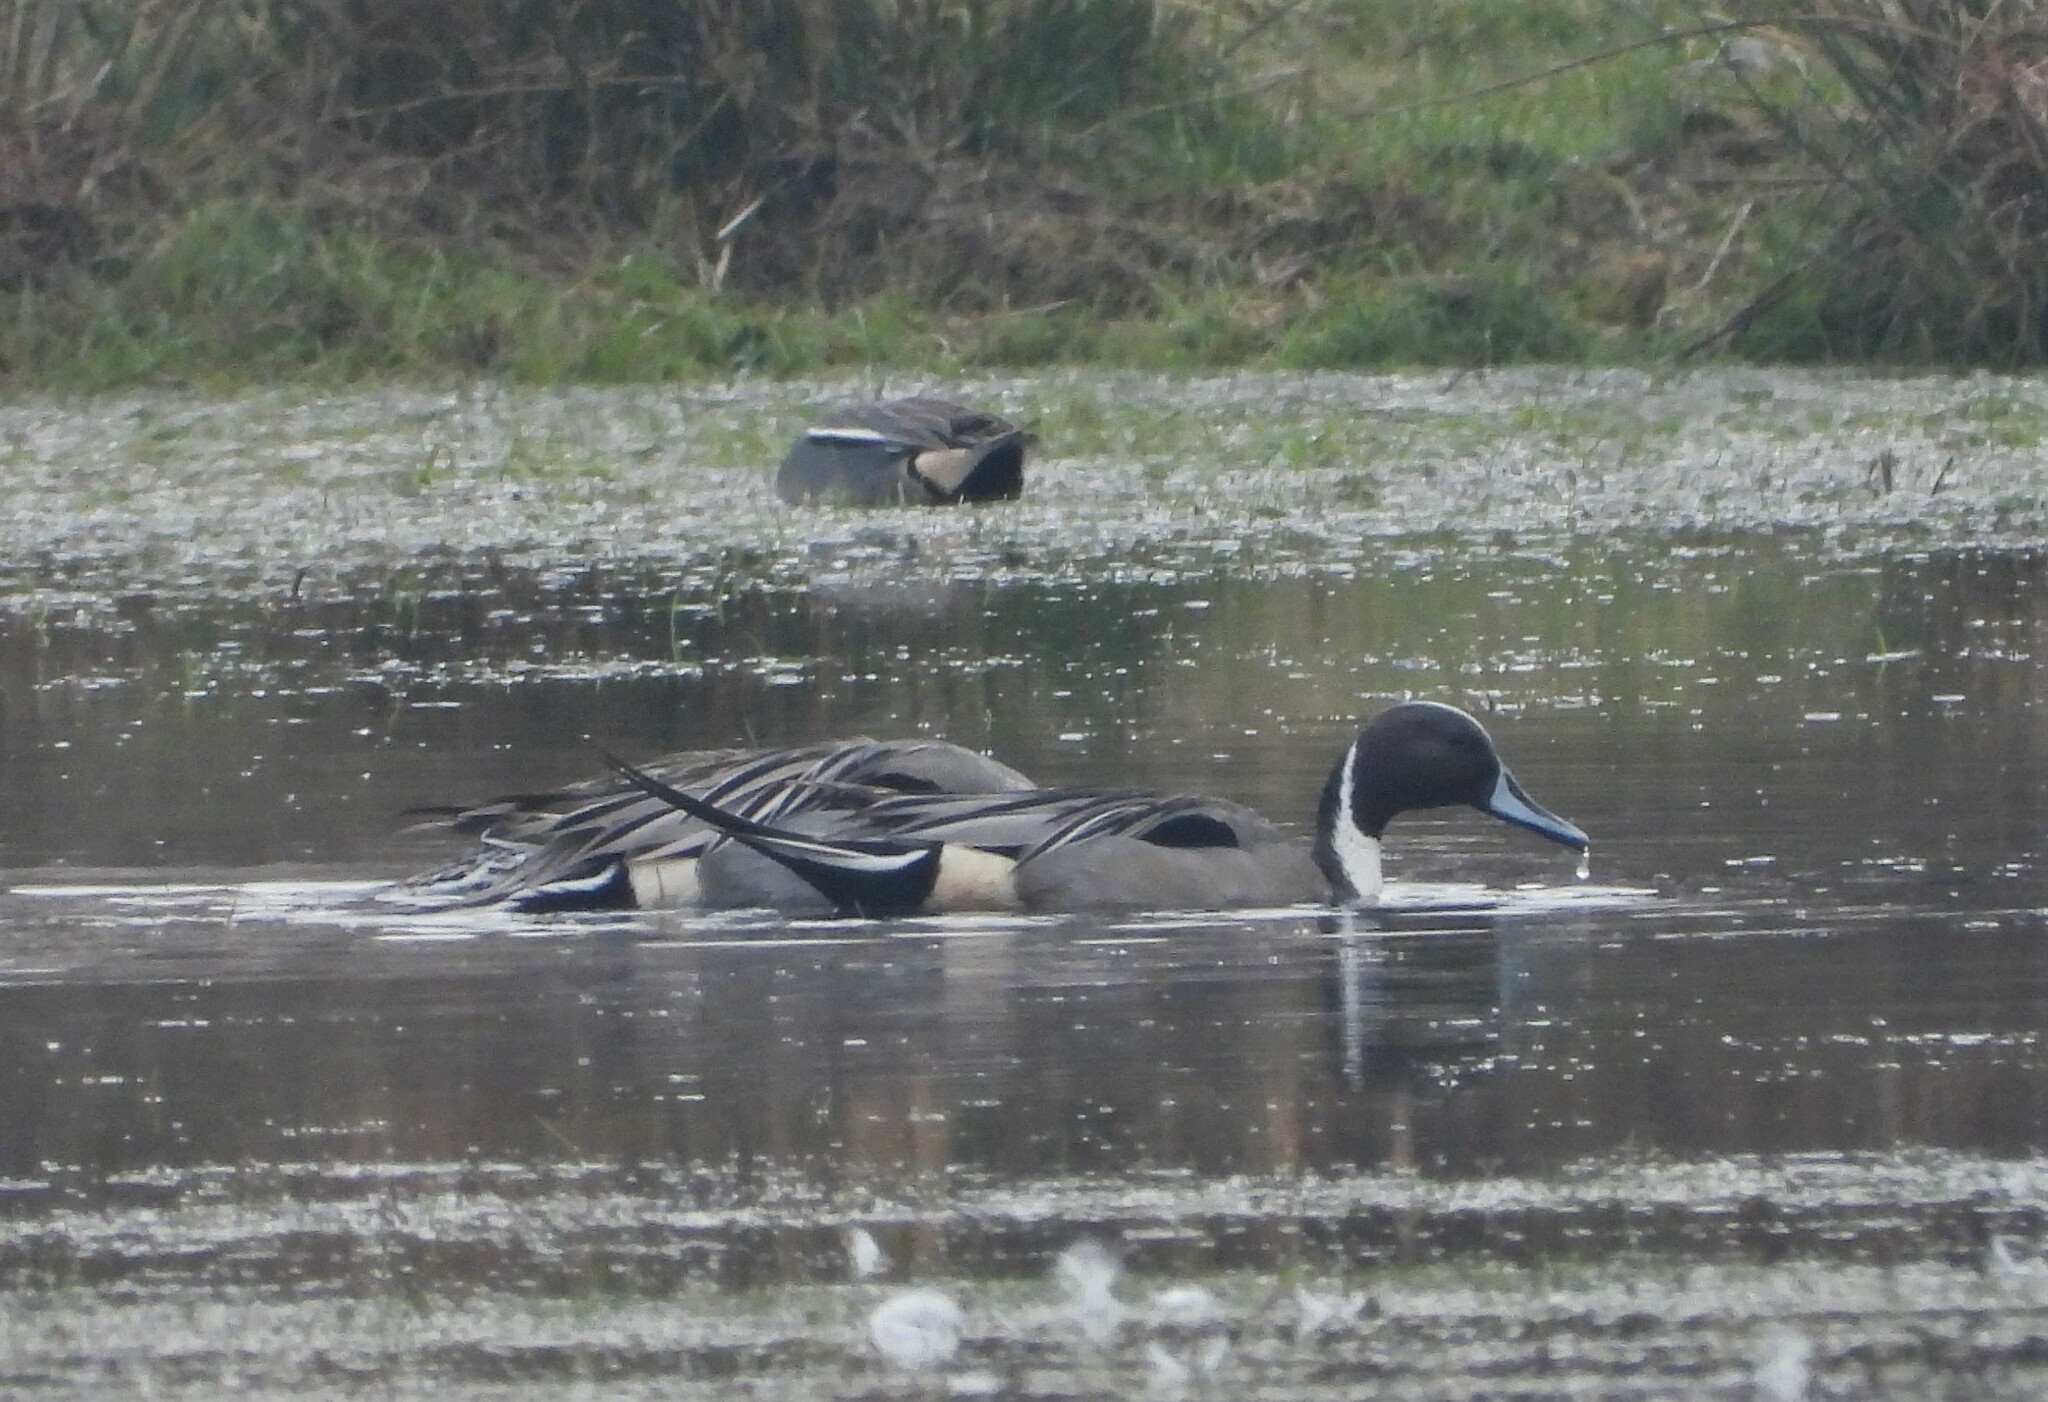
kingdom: Animalia
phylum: Chordata
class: Aves
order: Anseriformes
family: Anatidae
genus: Anas
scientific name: Anas acuta
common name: Northern pintail
